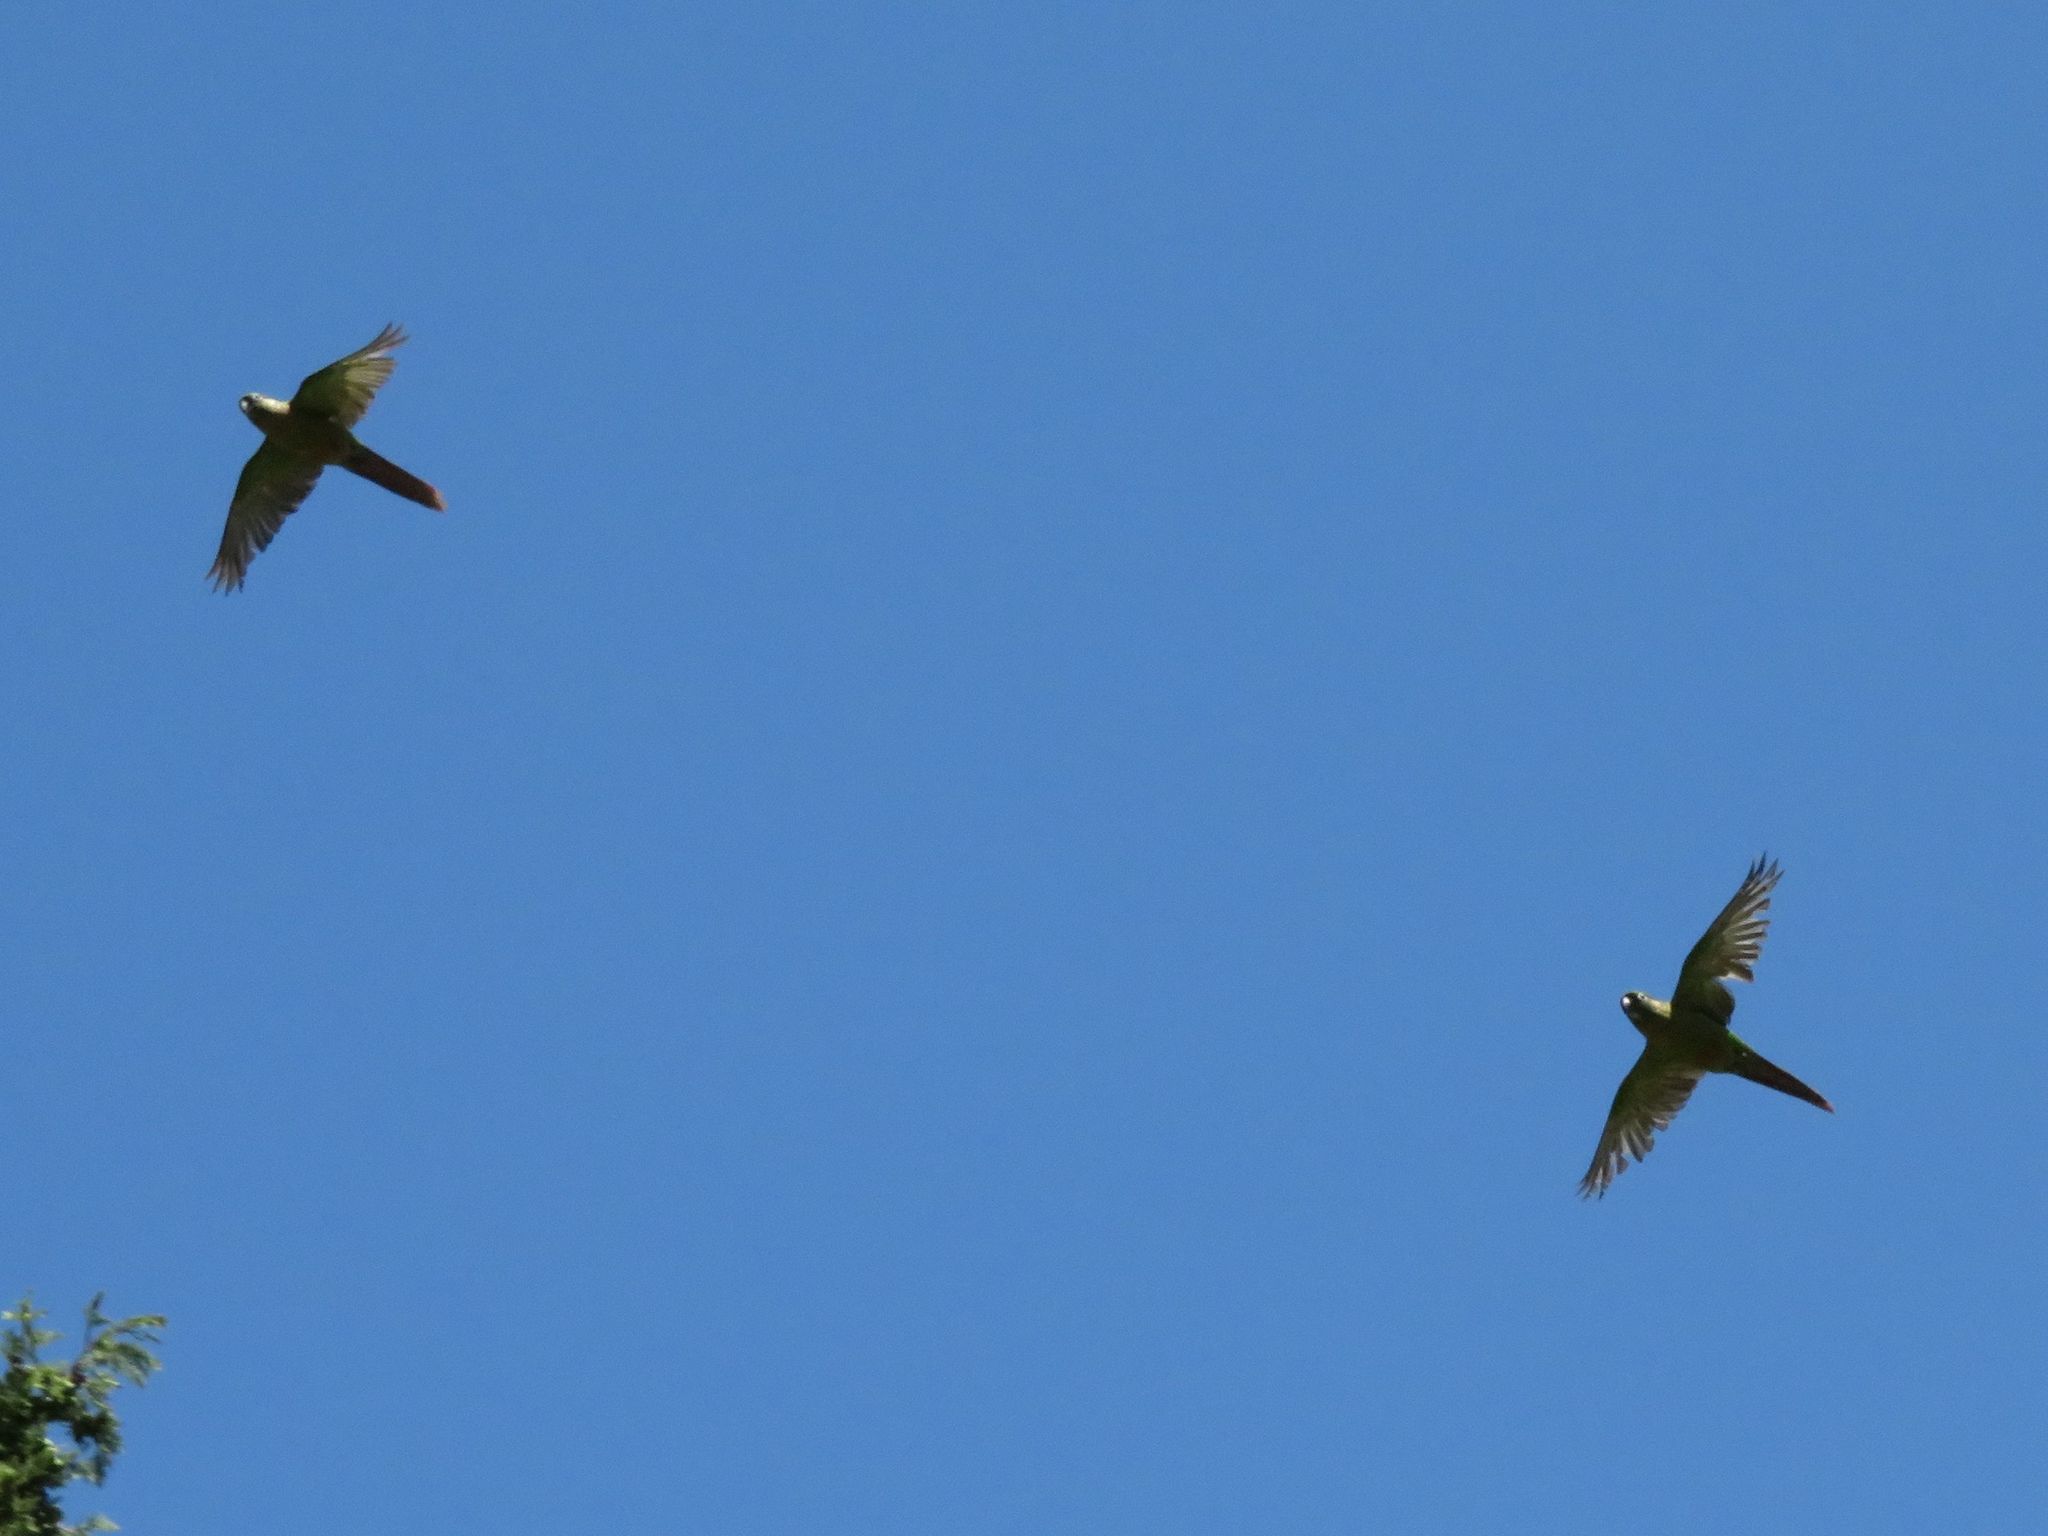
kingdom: Animalia
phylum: Chordata
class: Aves
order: Psittaciformes
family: Psittacidae
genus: Aratinga
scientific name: Aratinga leucophthalma
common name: White-eyed parakeet
